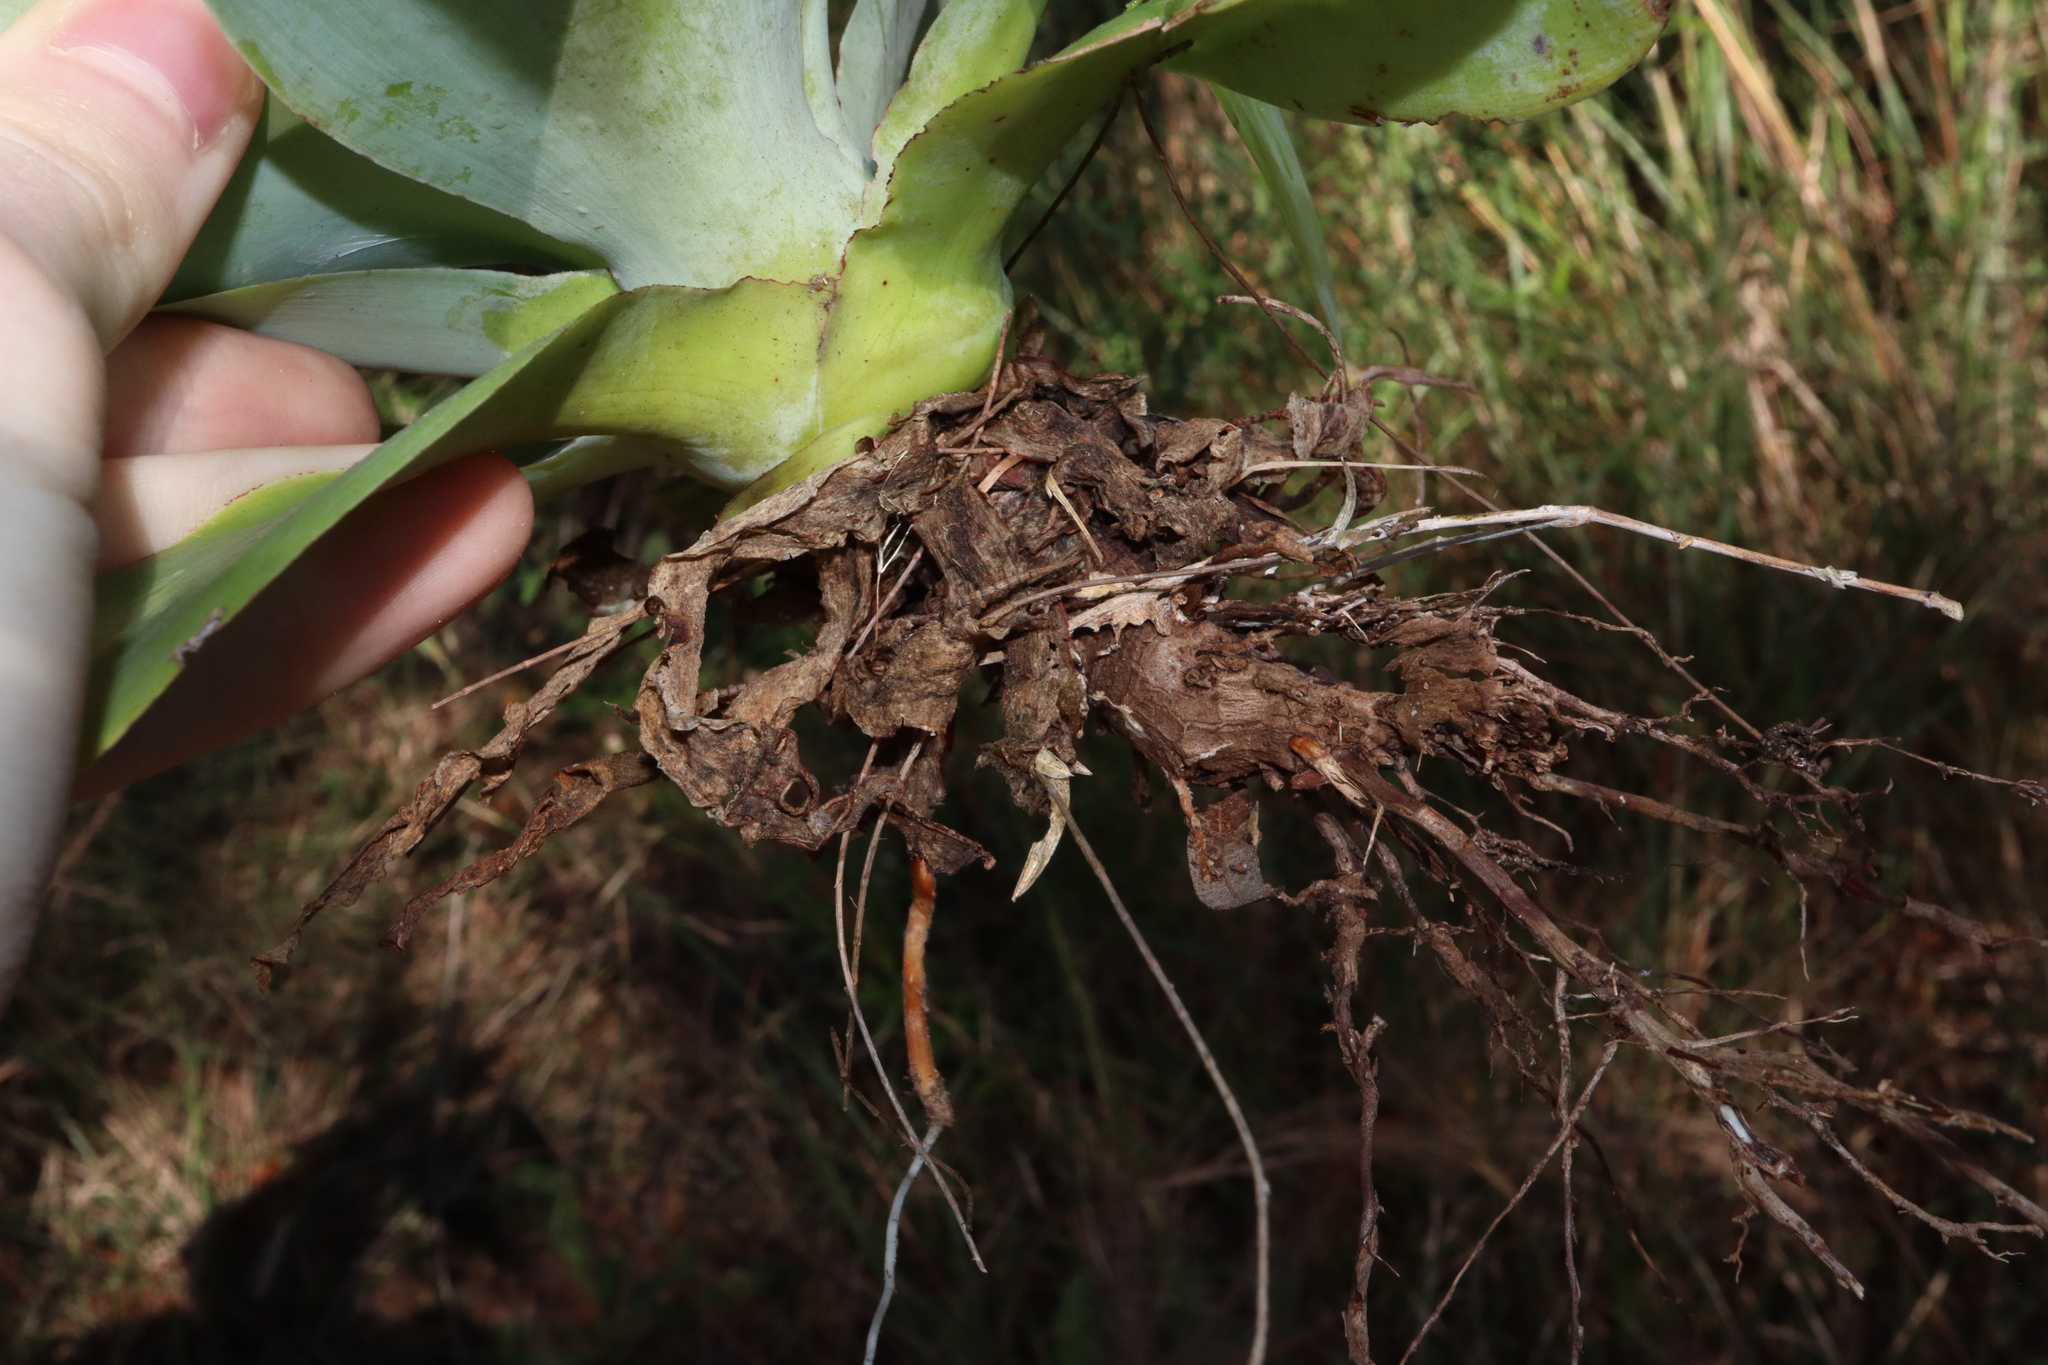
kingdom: Plantae
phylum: Tracheophyta
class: Liliopsida
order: Asparagales
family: Asparagaceae
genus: Agave
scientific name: Agave attenuata
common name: Fox tail agave
